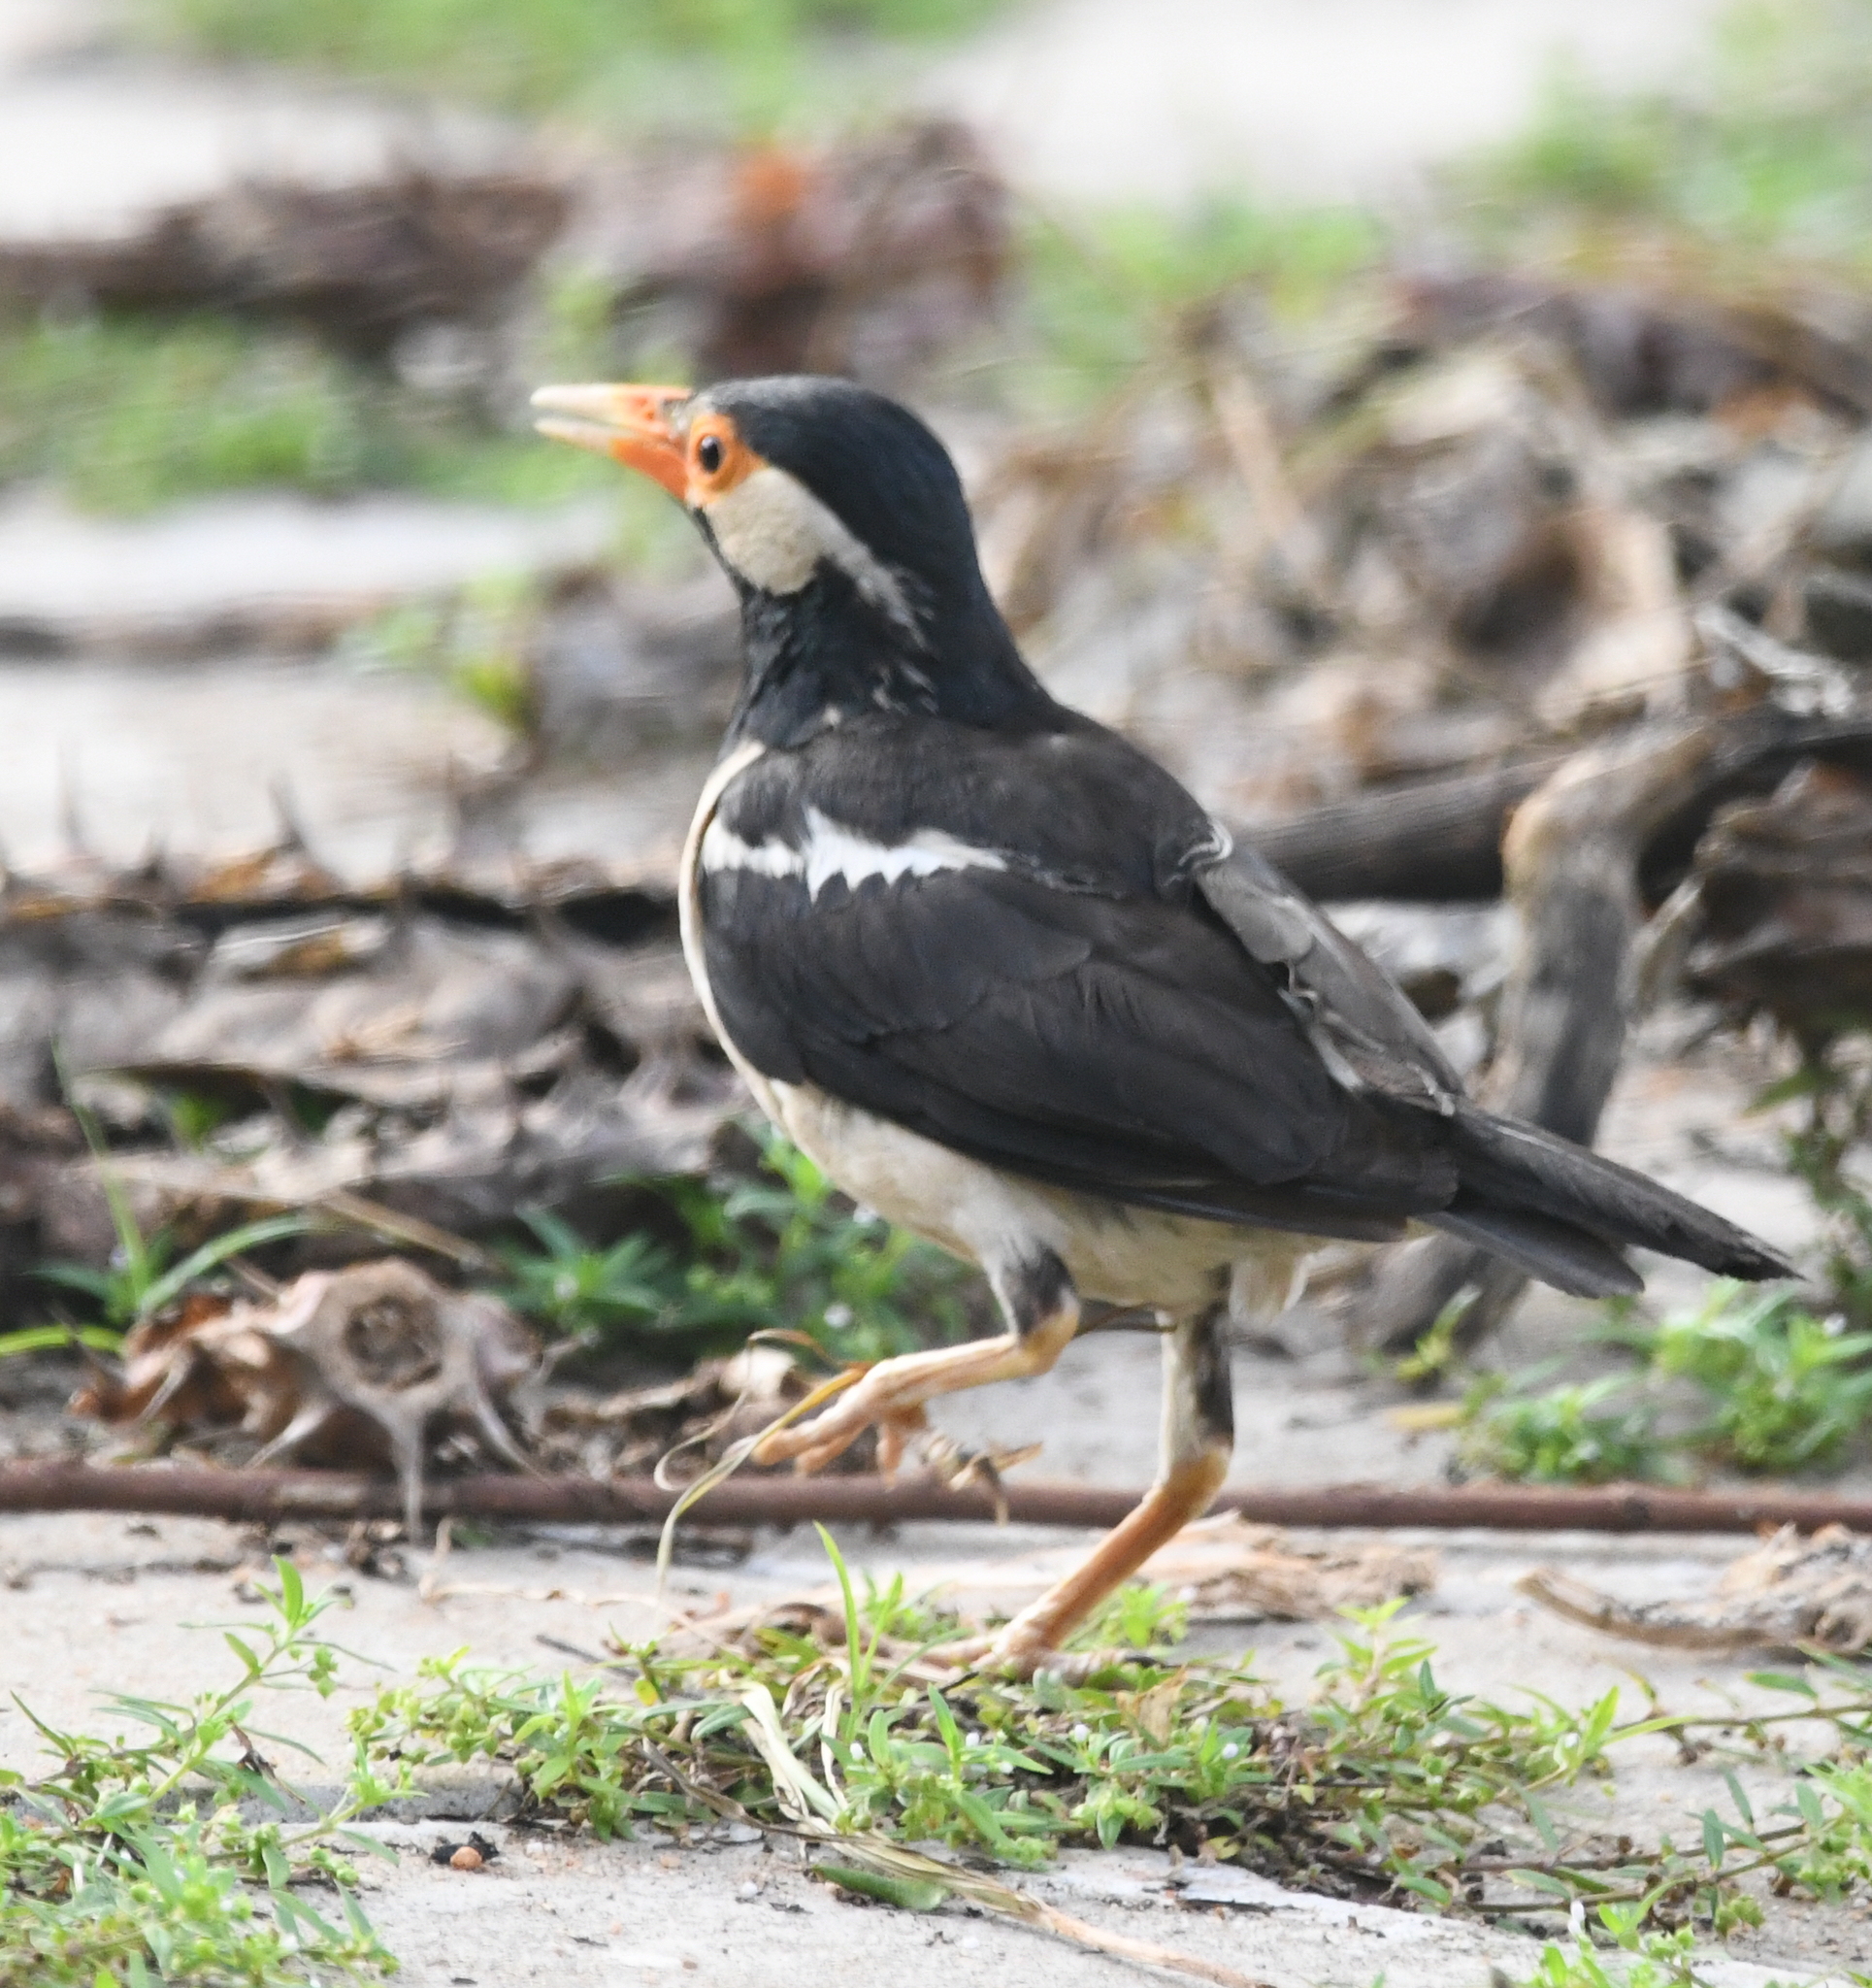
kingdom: Animalia
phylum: Chordata
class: Aves
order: Passeriformes
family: Sturnidae
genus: Gracupica
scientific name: Gracupica contra
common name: Pied myna
